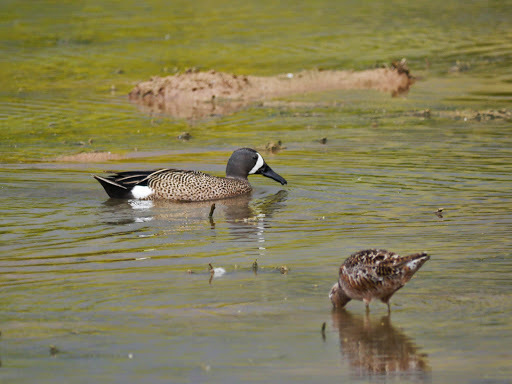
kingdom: Animalia
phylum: Chordata
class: Aves
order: Anseriformes
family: Anatidae
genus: Spatula
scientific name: Spatula discors
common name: Blue-winged teal
